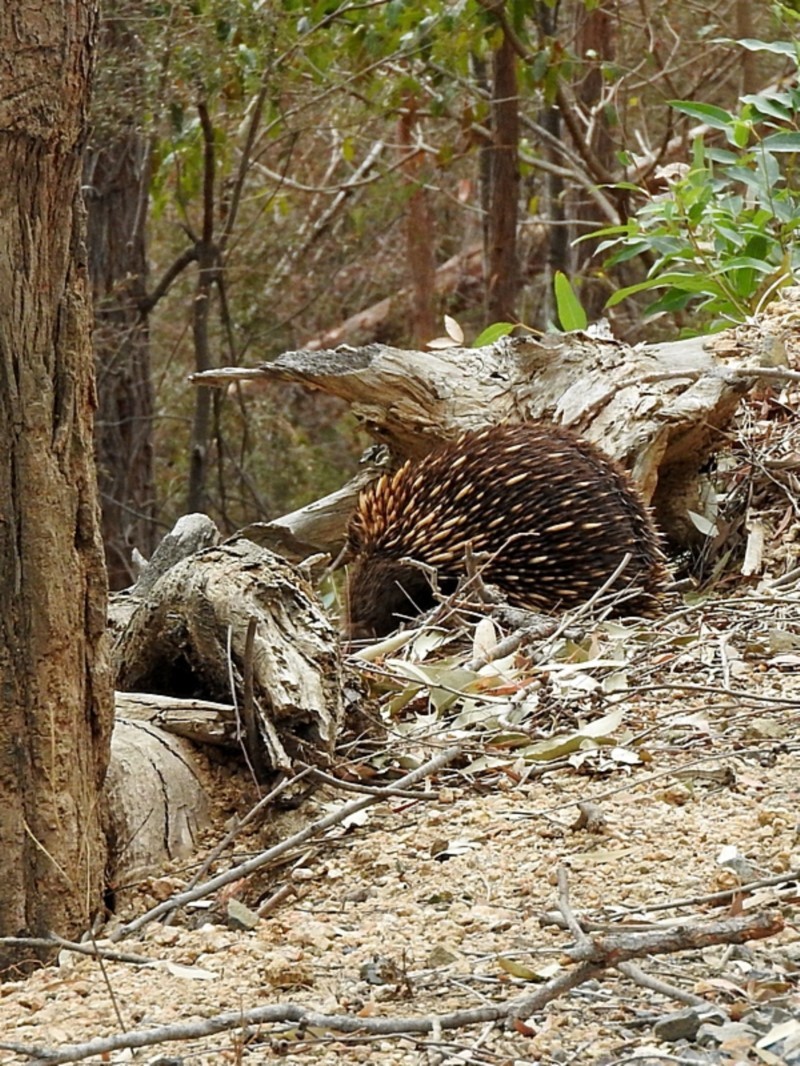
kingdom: Animalia
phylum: Chordata
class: Mammalia
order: Monotremata
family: Tachyglossidae
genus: Tachyglossus
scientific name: Tachyglossus aculeatus
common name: Short-beaked echidna
